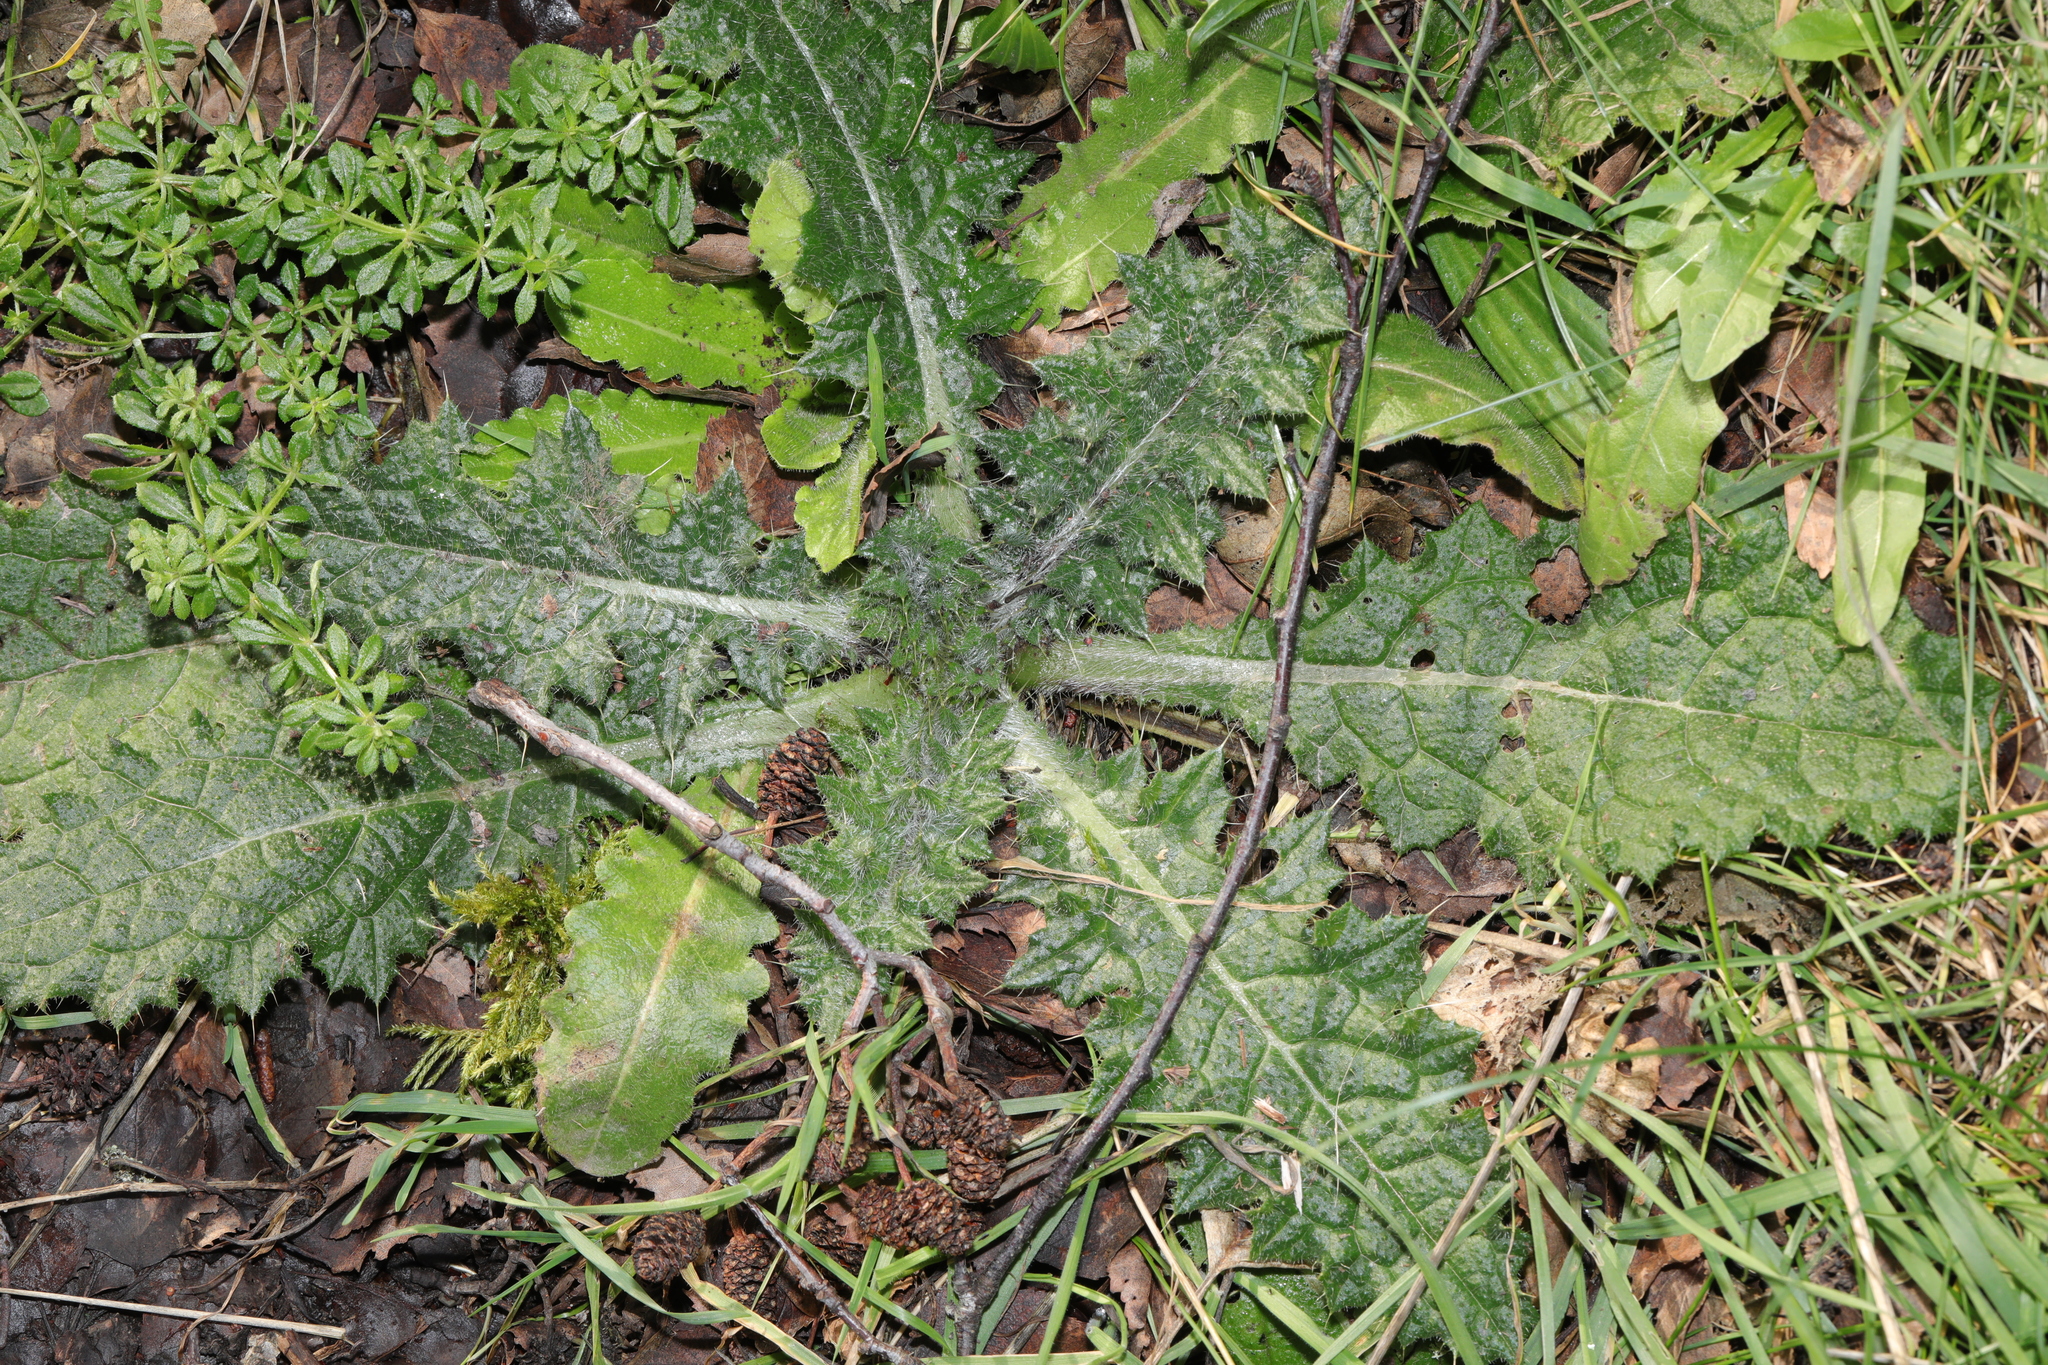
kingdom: Plantae
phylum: Tracheophyta
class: Magnoliopsida
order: Asterales
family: Asteraceae
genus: Cirsium
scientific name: Cirsium vulgare
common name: Bull thistle
